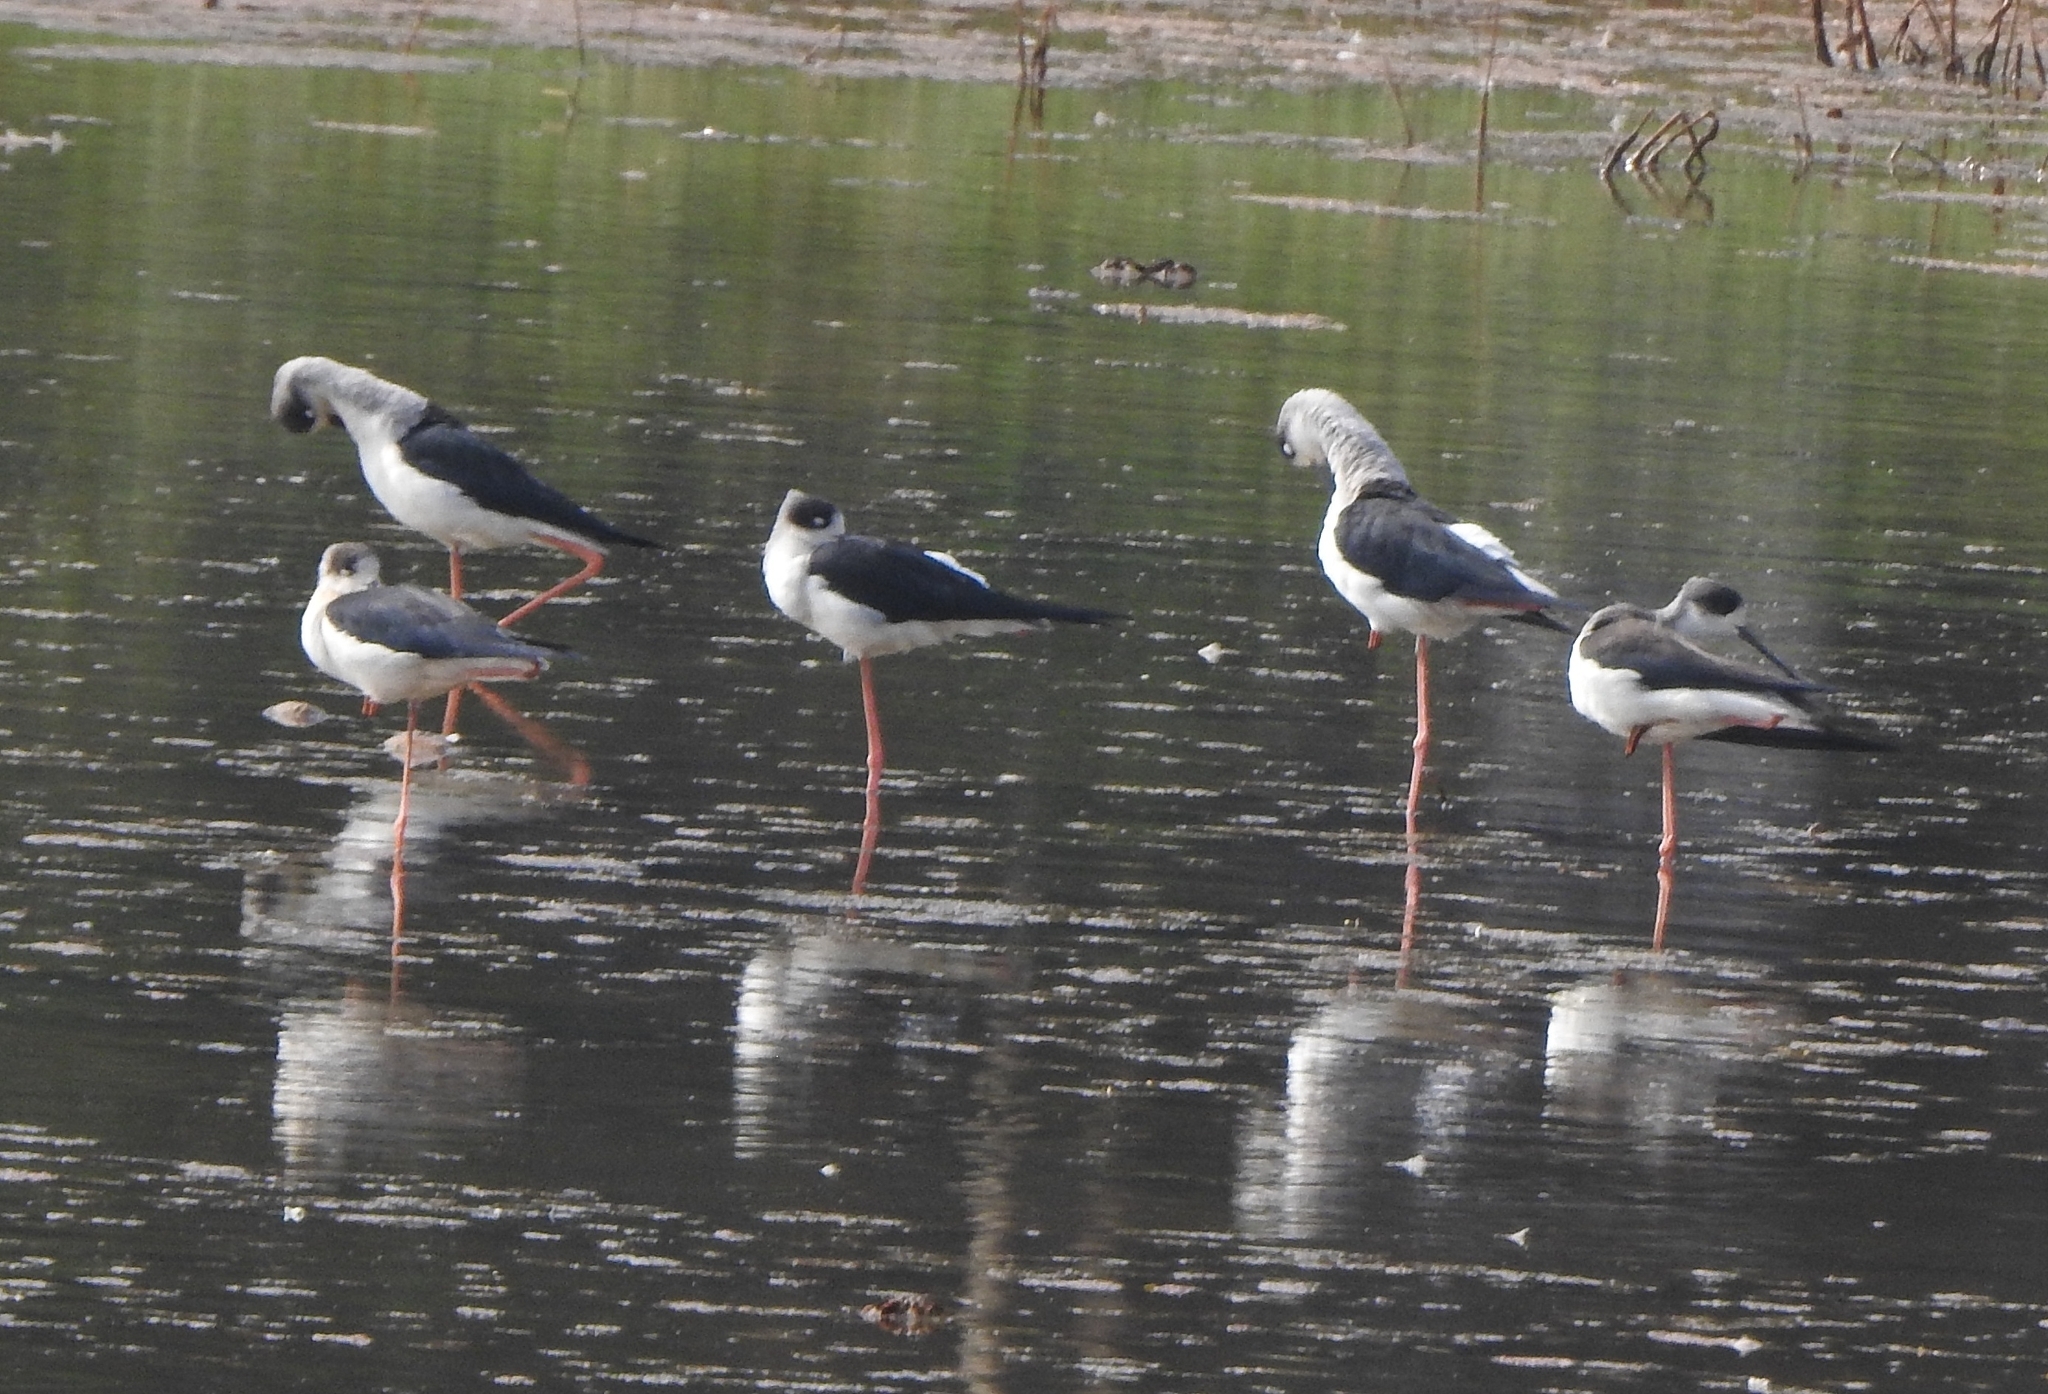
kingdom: Animalia
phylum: Chordata
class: Aves
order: Charadriiformes
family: Recurvirostridae
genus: Himantopus
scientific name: Himantopus himantopus
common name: Black-winged stilt
